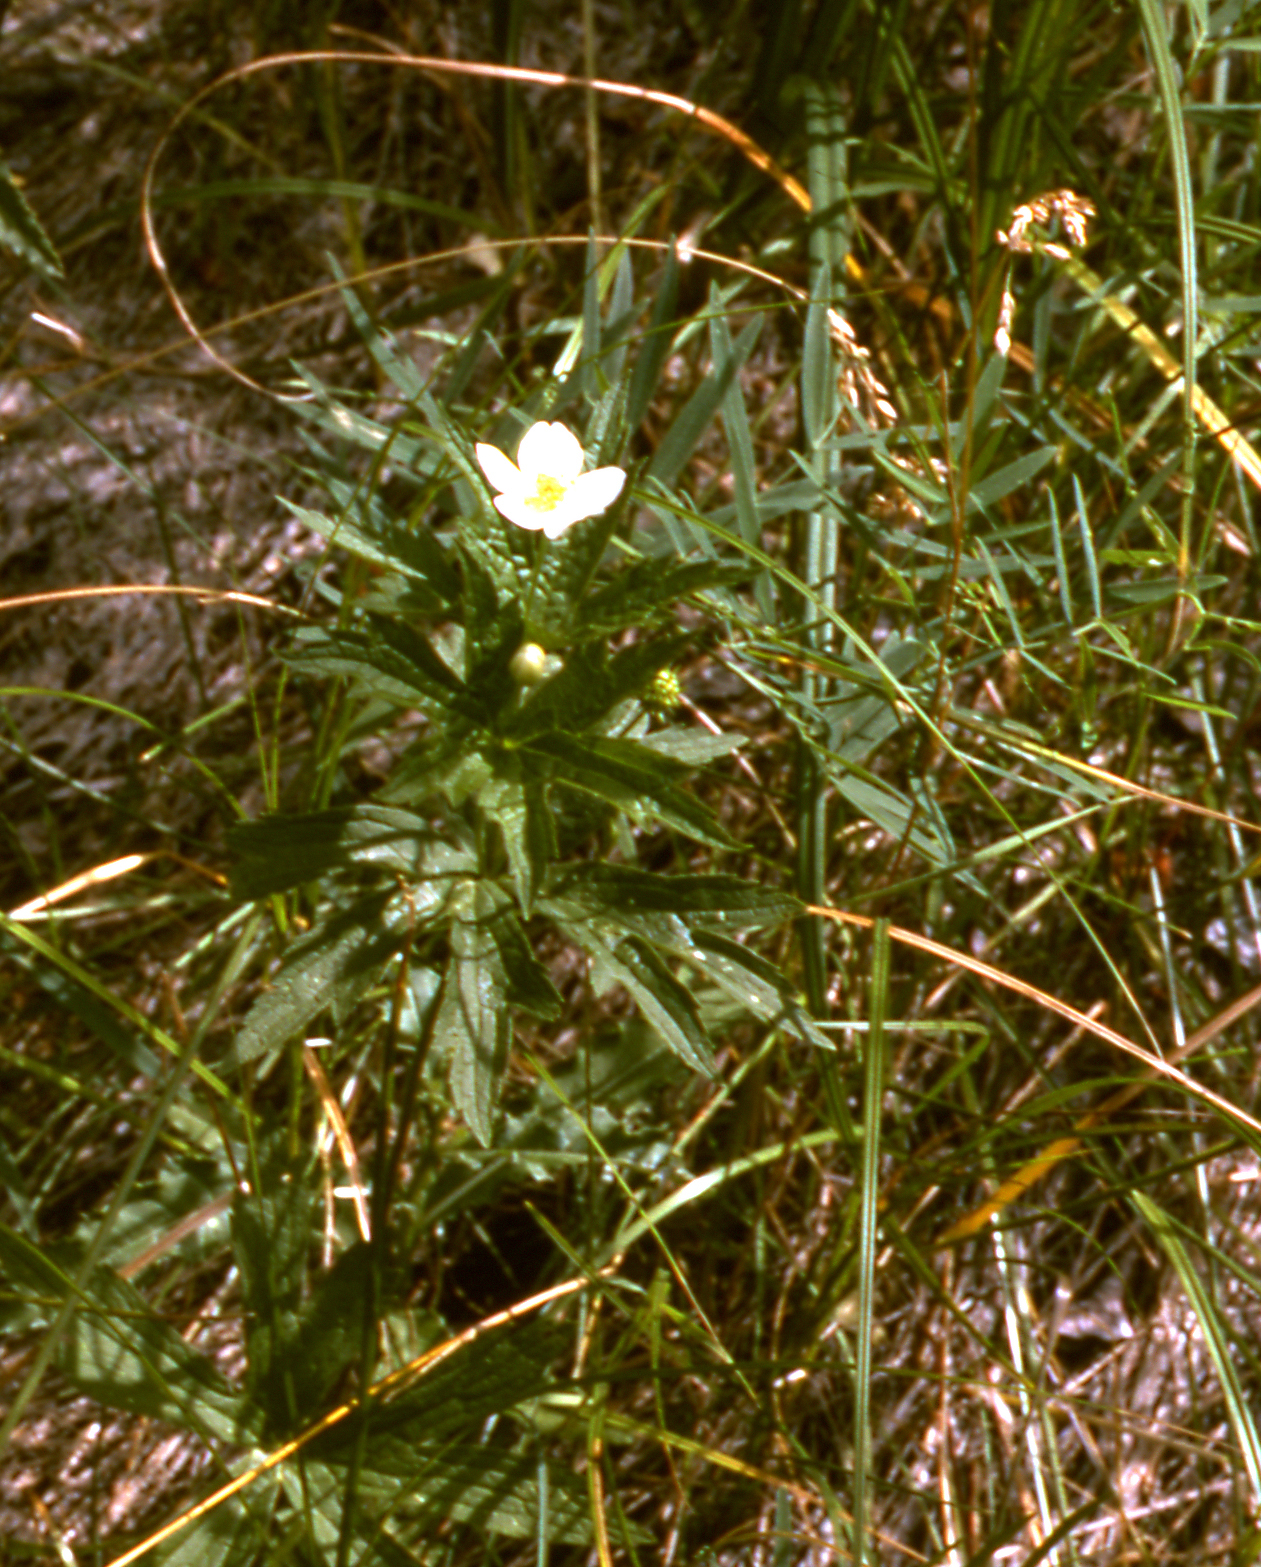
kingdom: Plantae
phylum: Tracheophyta
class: Magnoliopsida
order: Ranunculales
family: Ranunculaceae
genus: Anemonastrum
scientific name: Anemonastrum canadense
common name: Canada anemone
